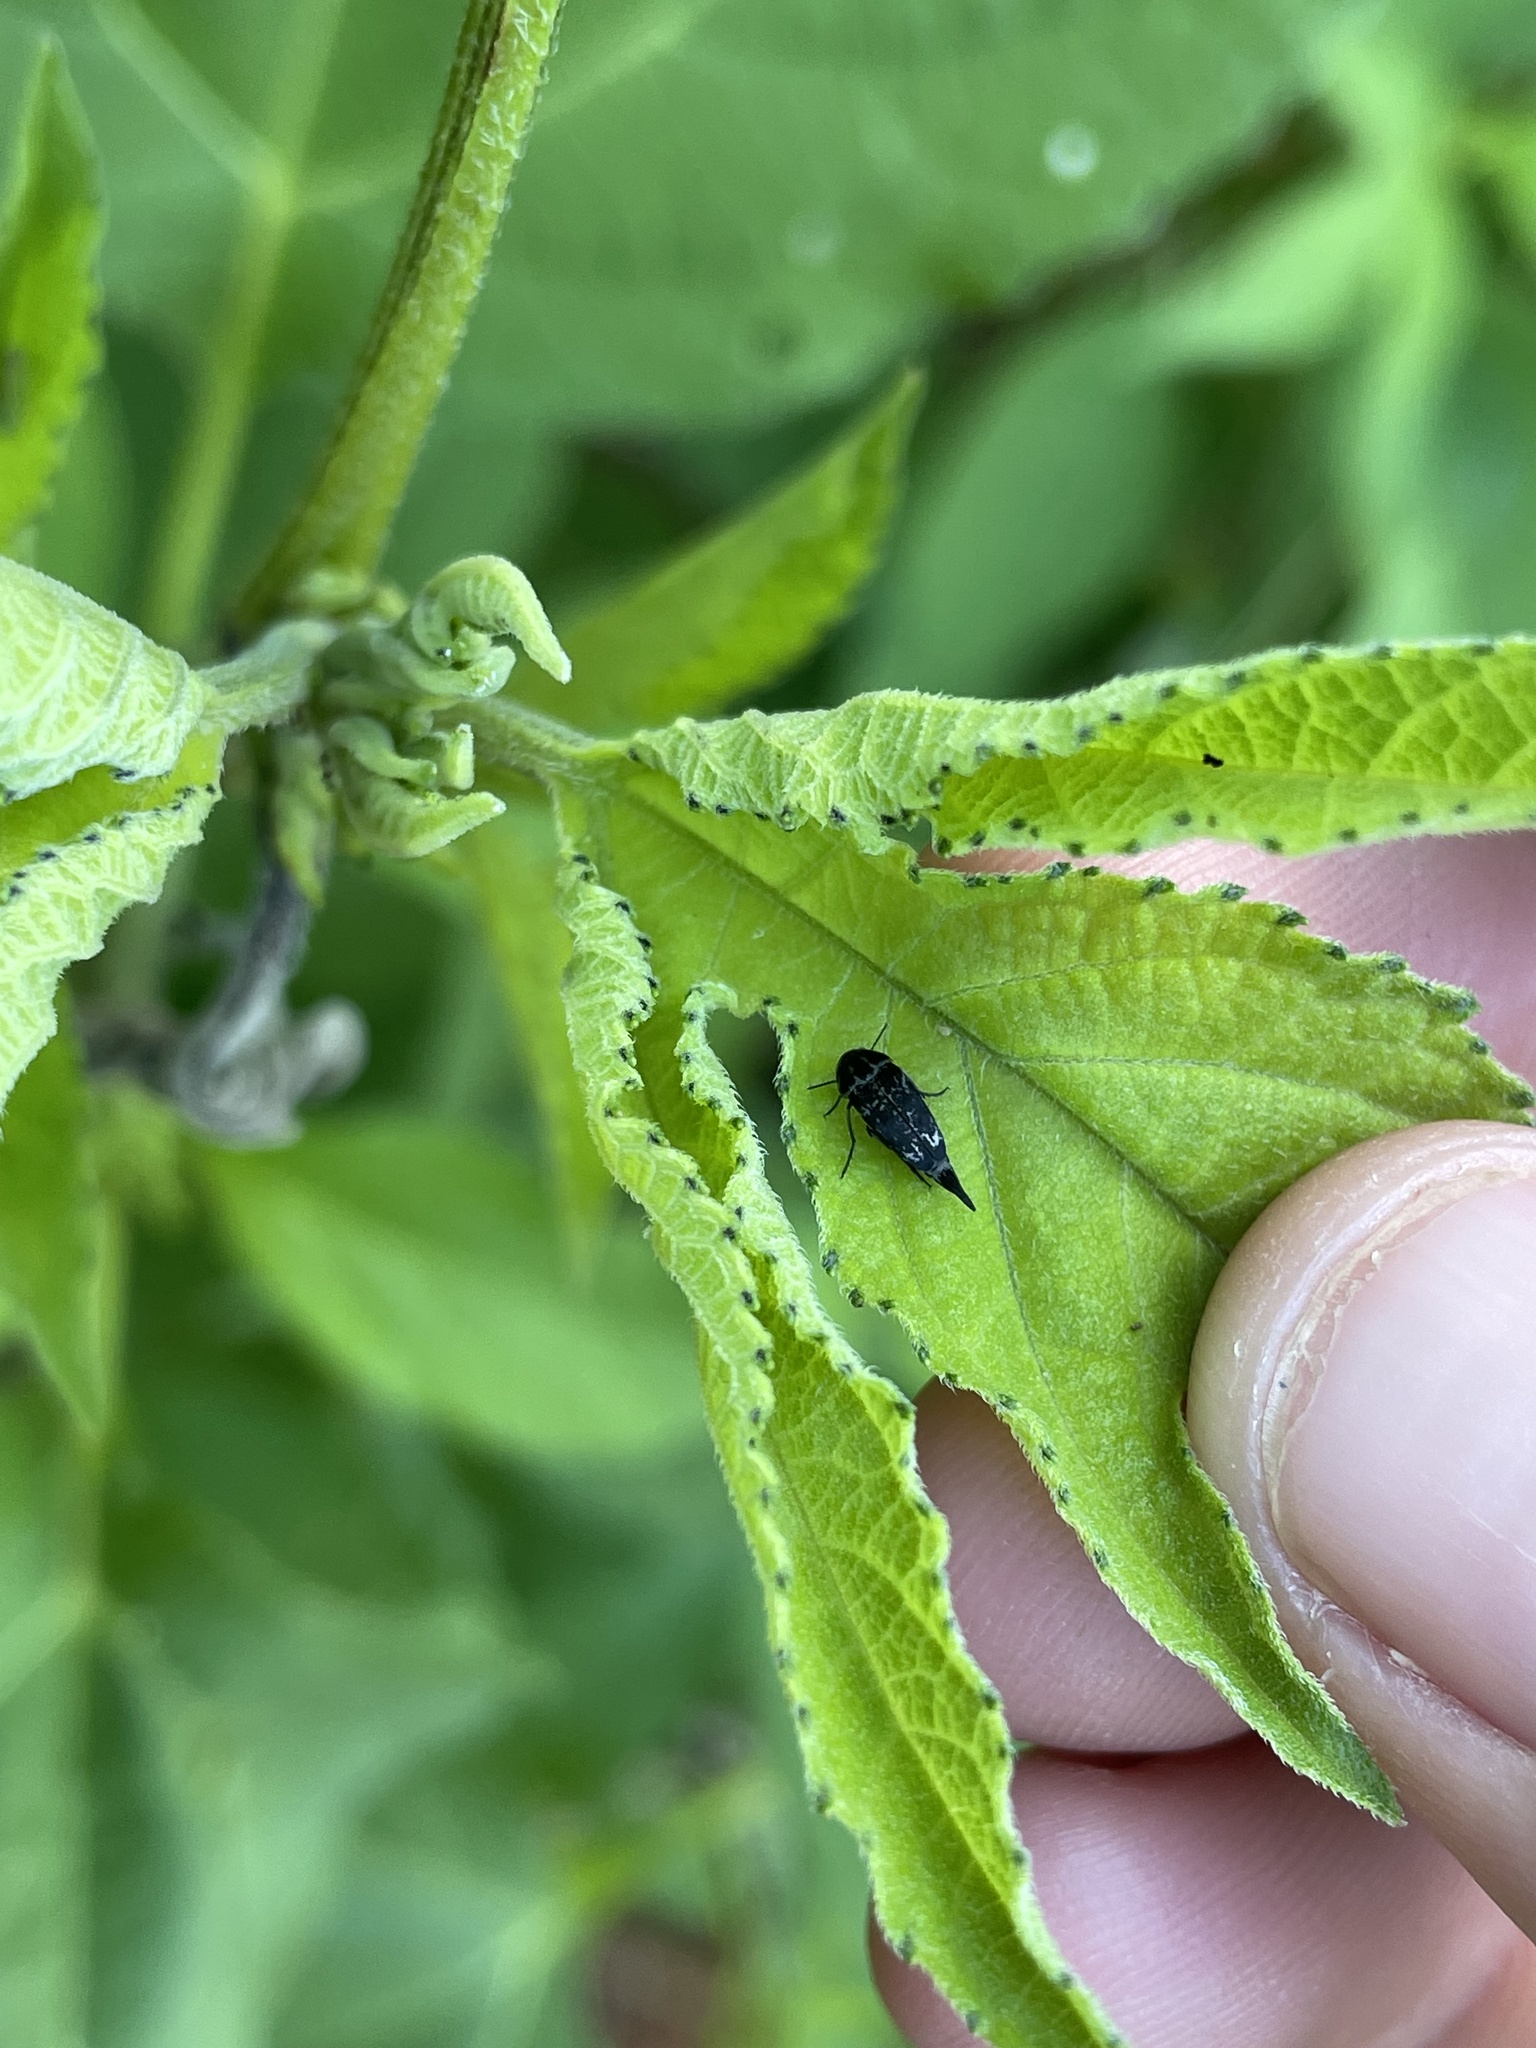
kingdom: Animalia
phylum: Arthropoda
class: Insecta
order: Coleoptera
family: Mordellidae
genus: Mordella
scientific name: Mordella marginata
